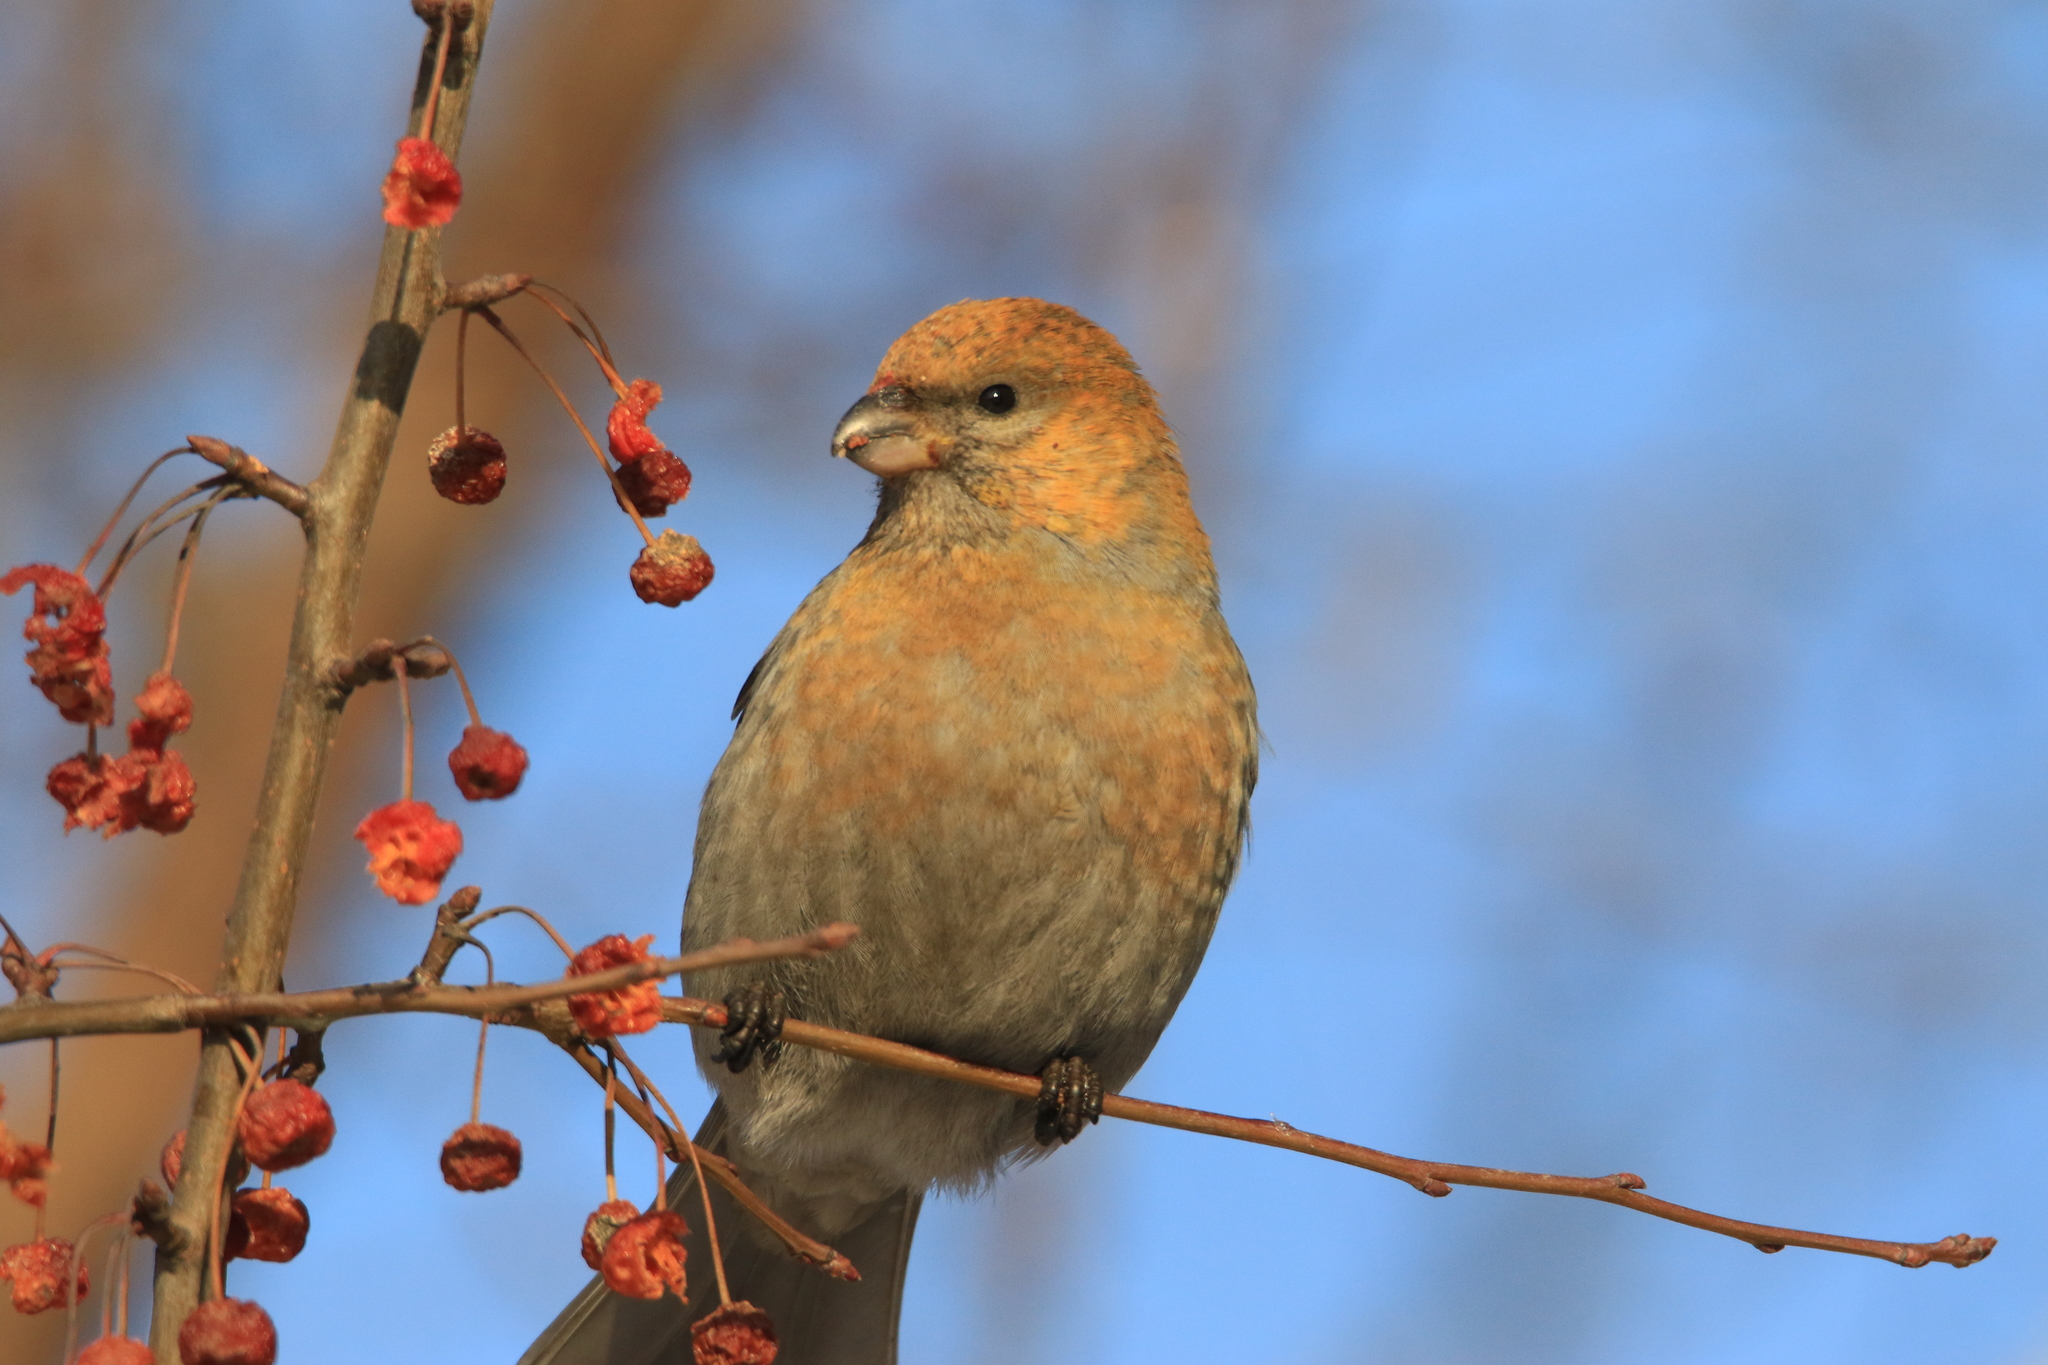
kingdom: Animalia
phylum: Chordata
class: Aves
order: Passeriformes
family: Fringillidae
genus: Pinicola
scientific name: Pinicola enucleator
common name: Pine grosbeak
